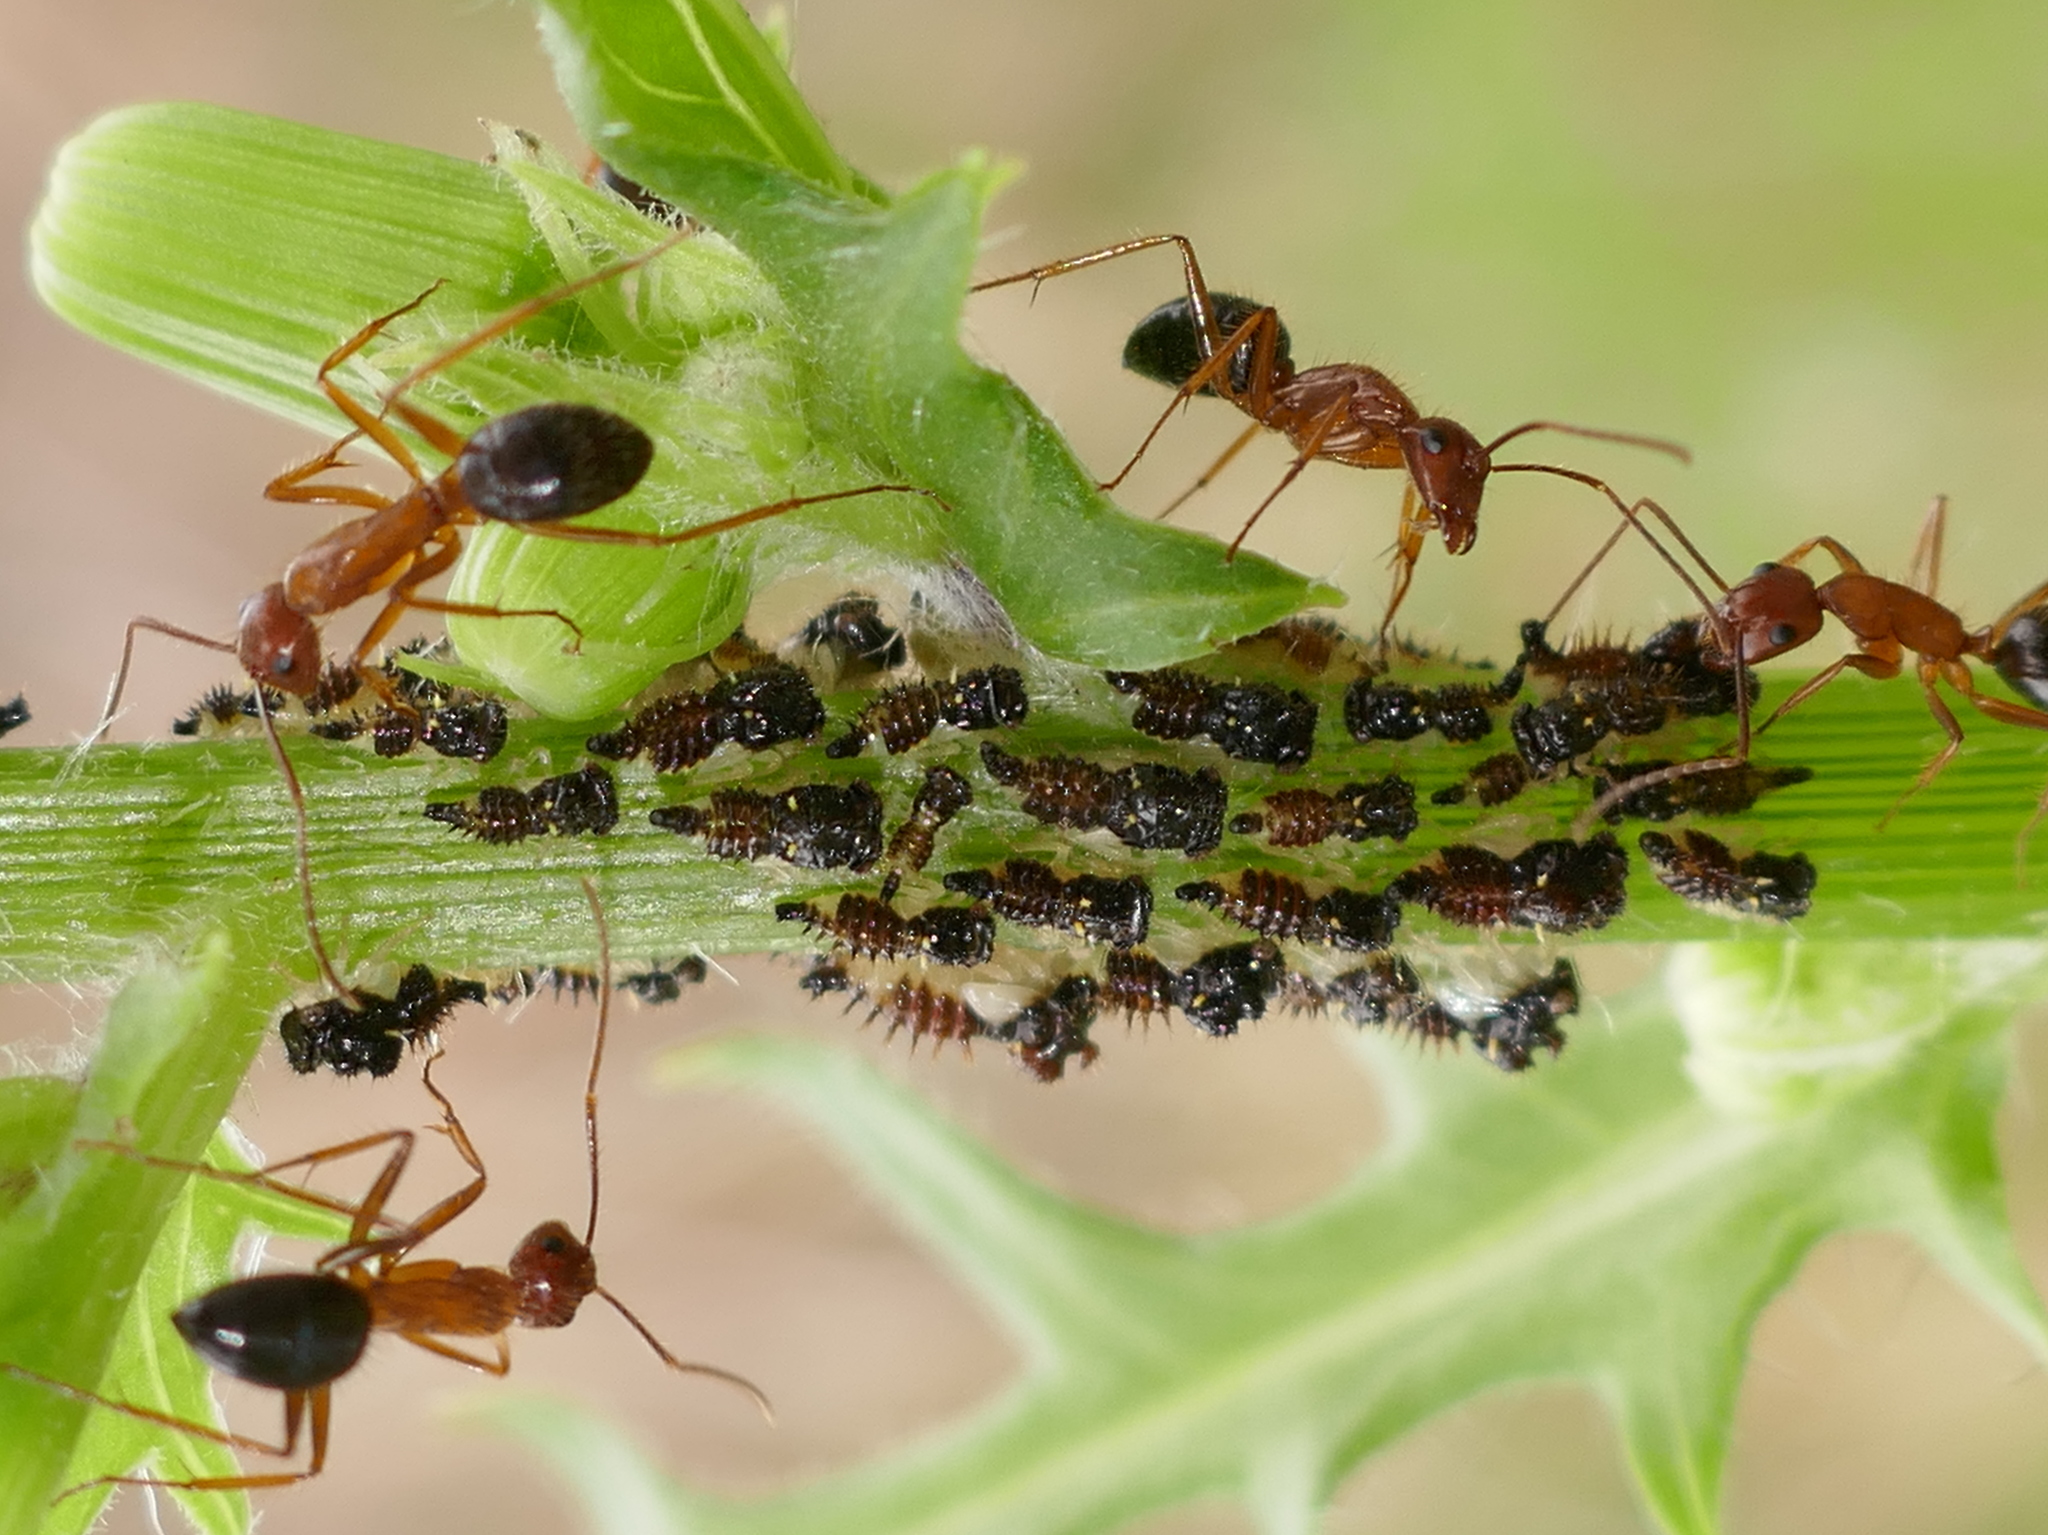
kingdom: Animalia
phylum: Arthropoda
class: Insecta
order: Hymenoptera
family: Formicidae
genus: Camponotus
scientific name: Camponotus floridanus
